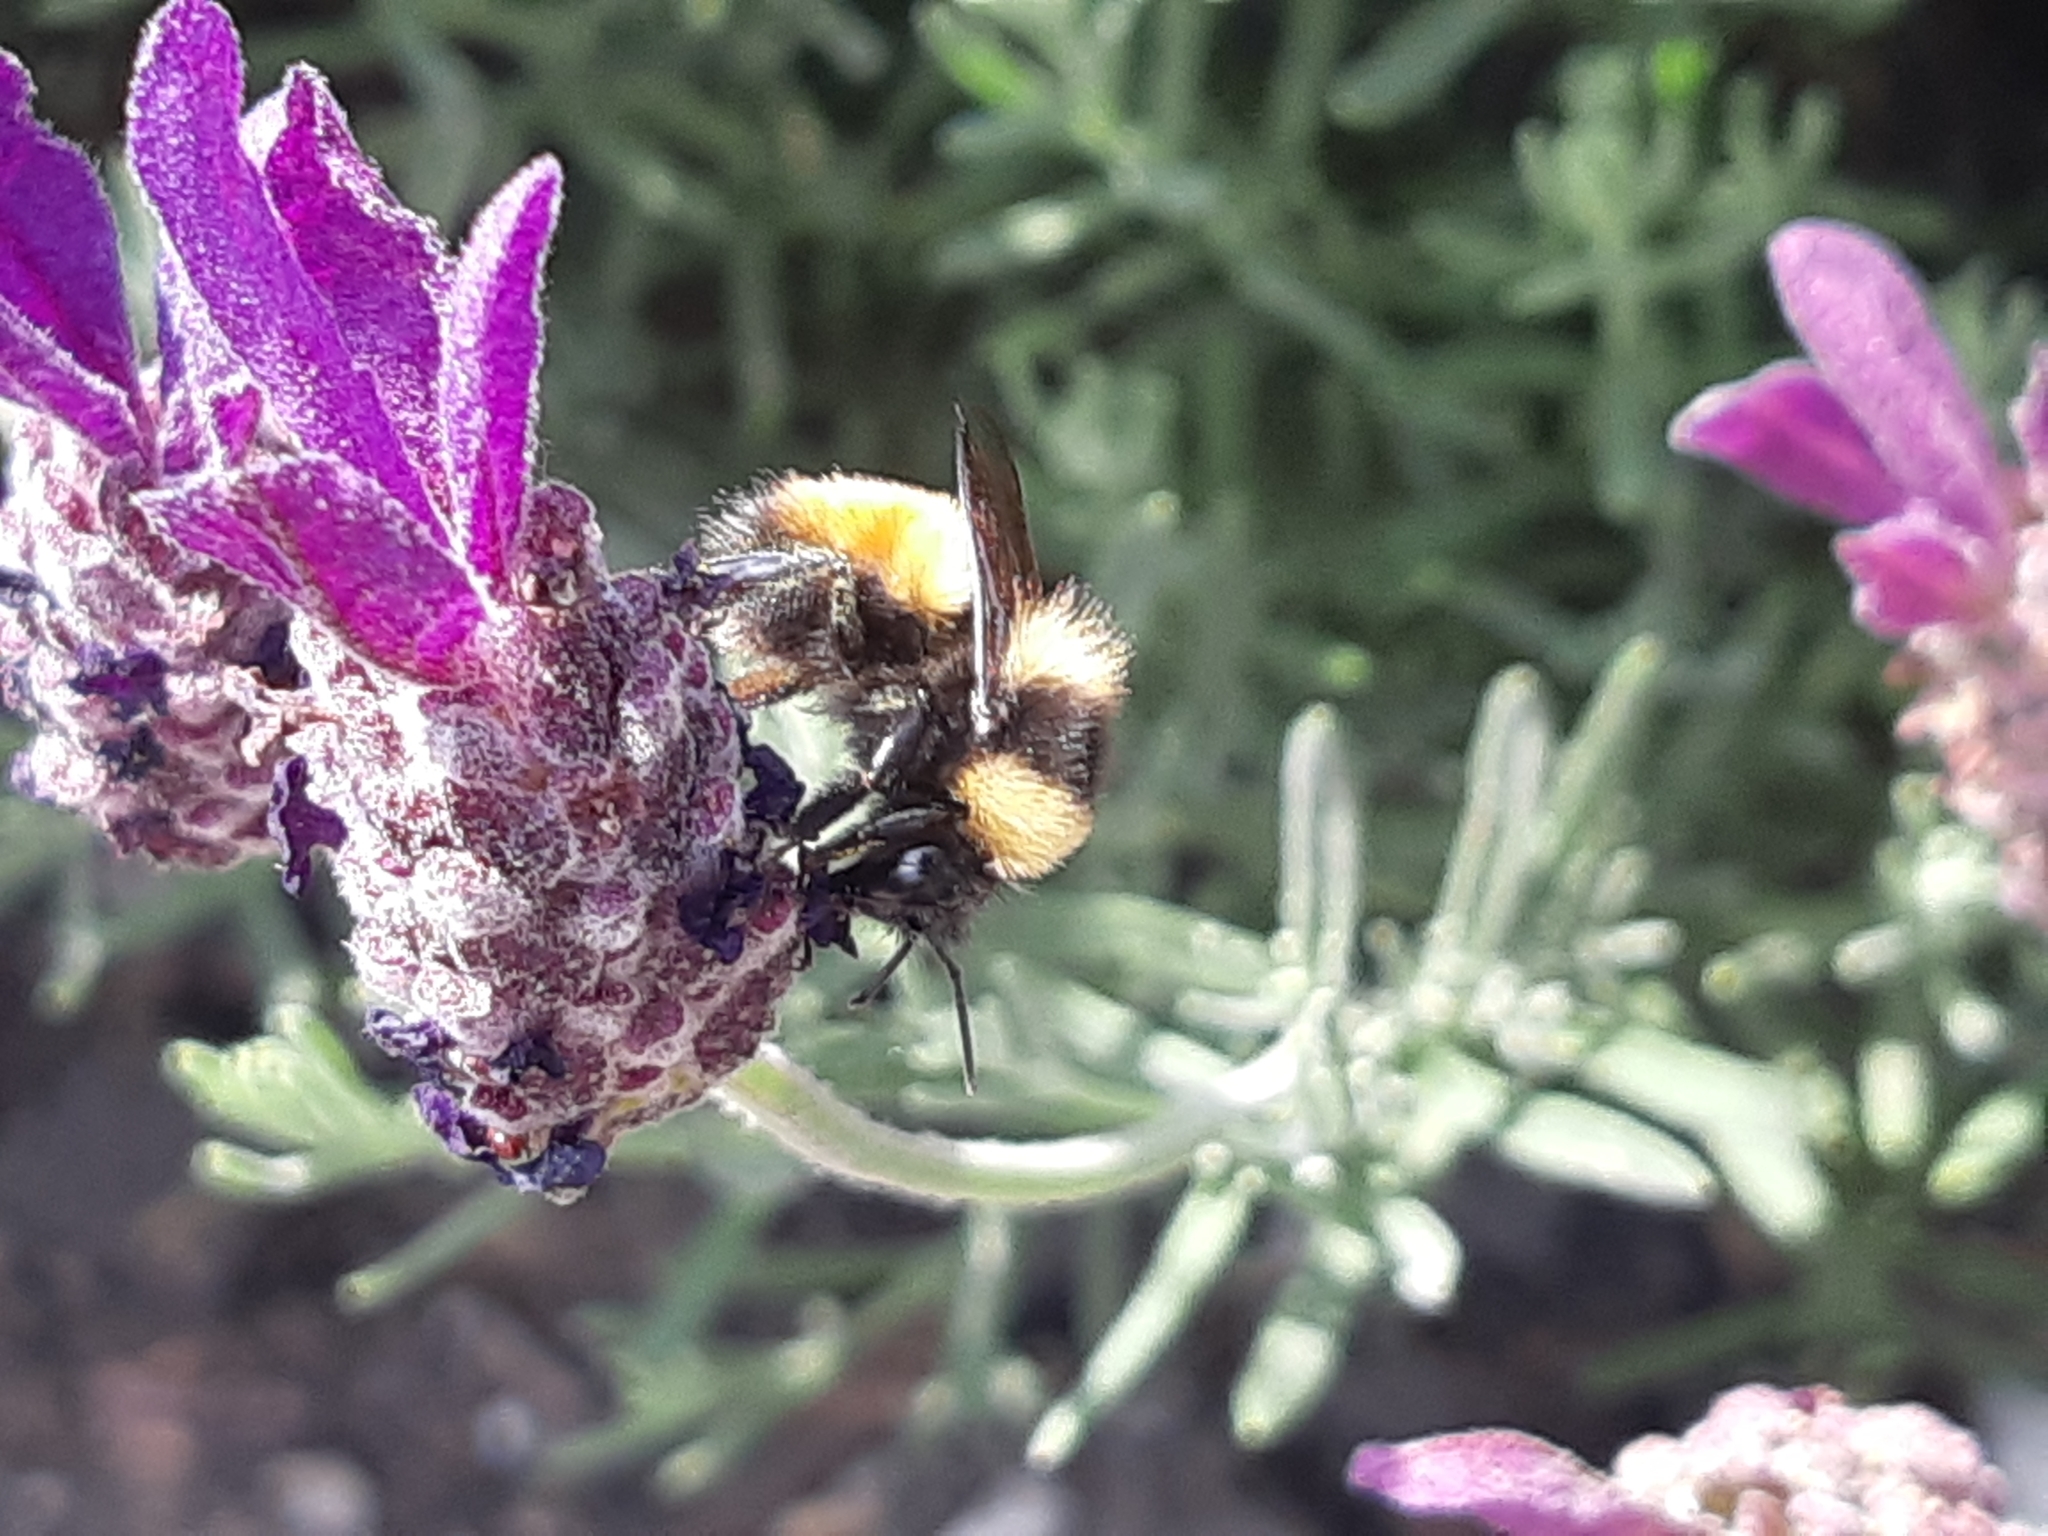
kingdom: Animalia
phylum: Arthropoda
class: Insecta
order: Hymenoptera
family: Apidae
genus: Bombus
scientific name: Bombus robustus
